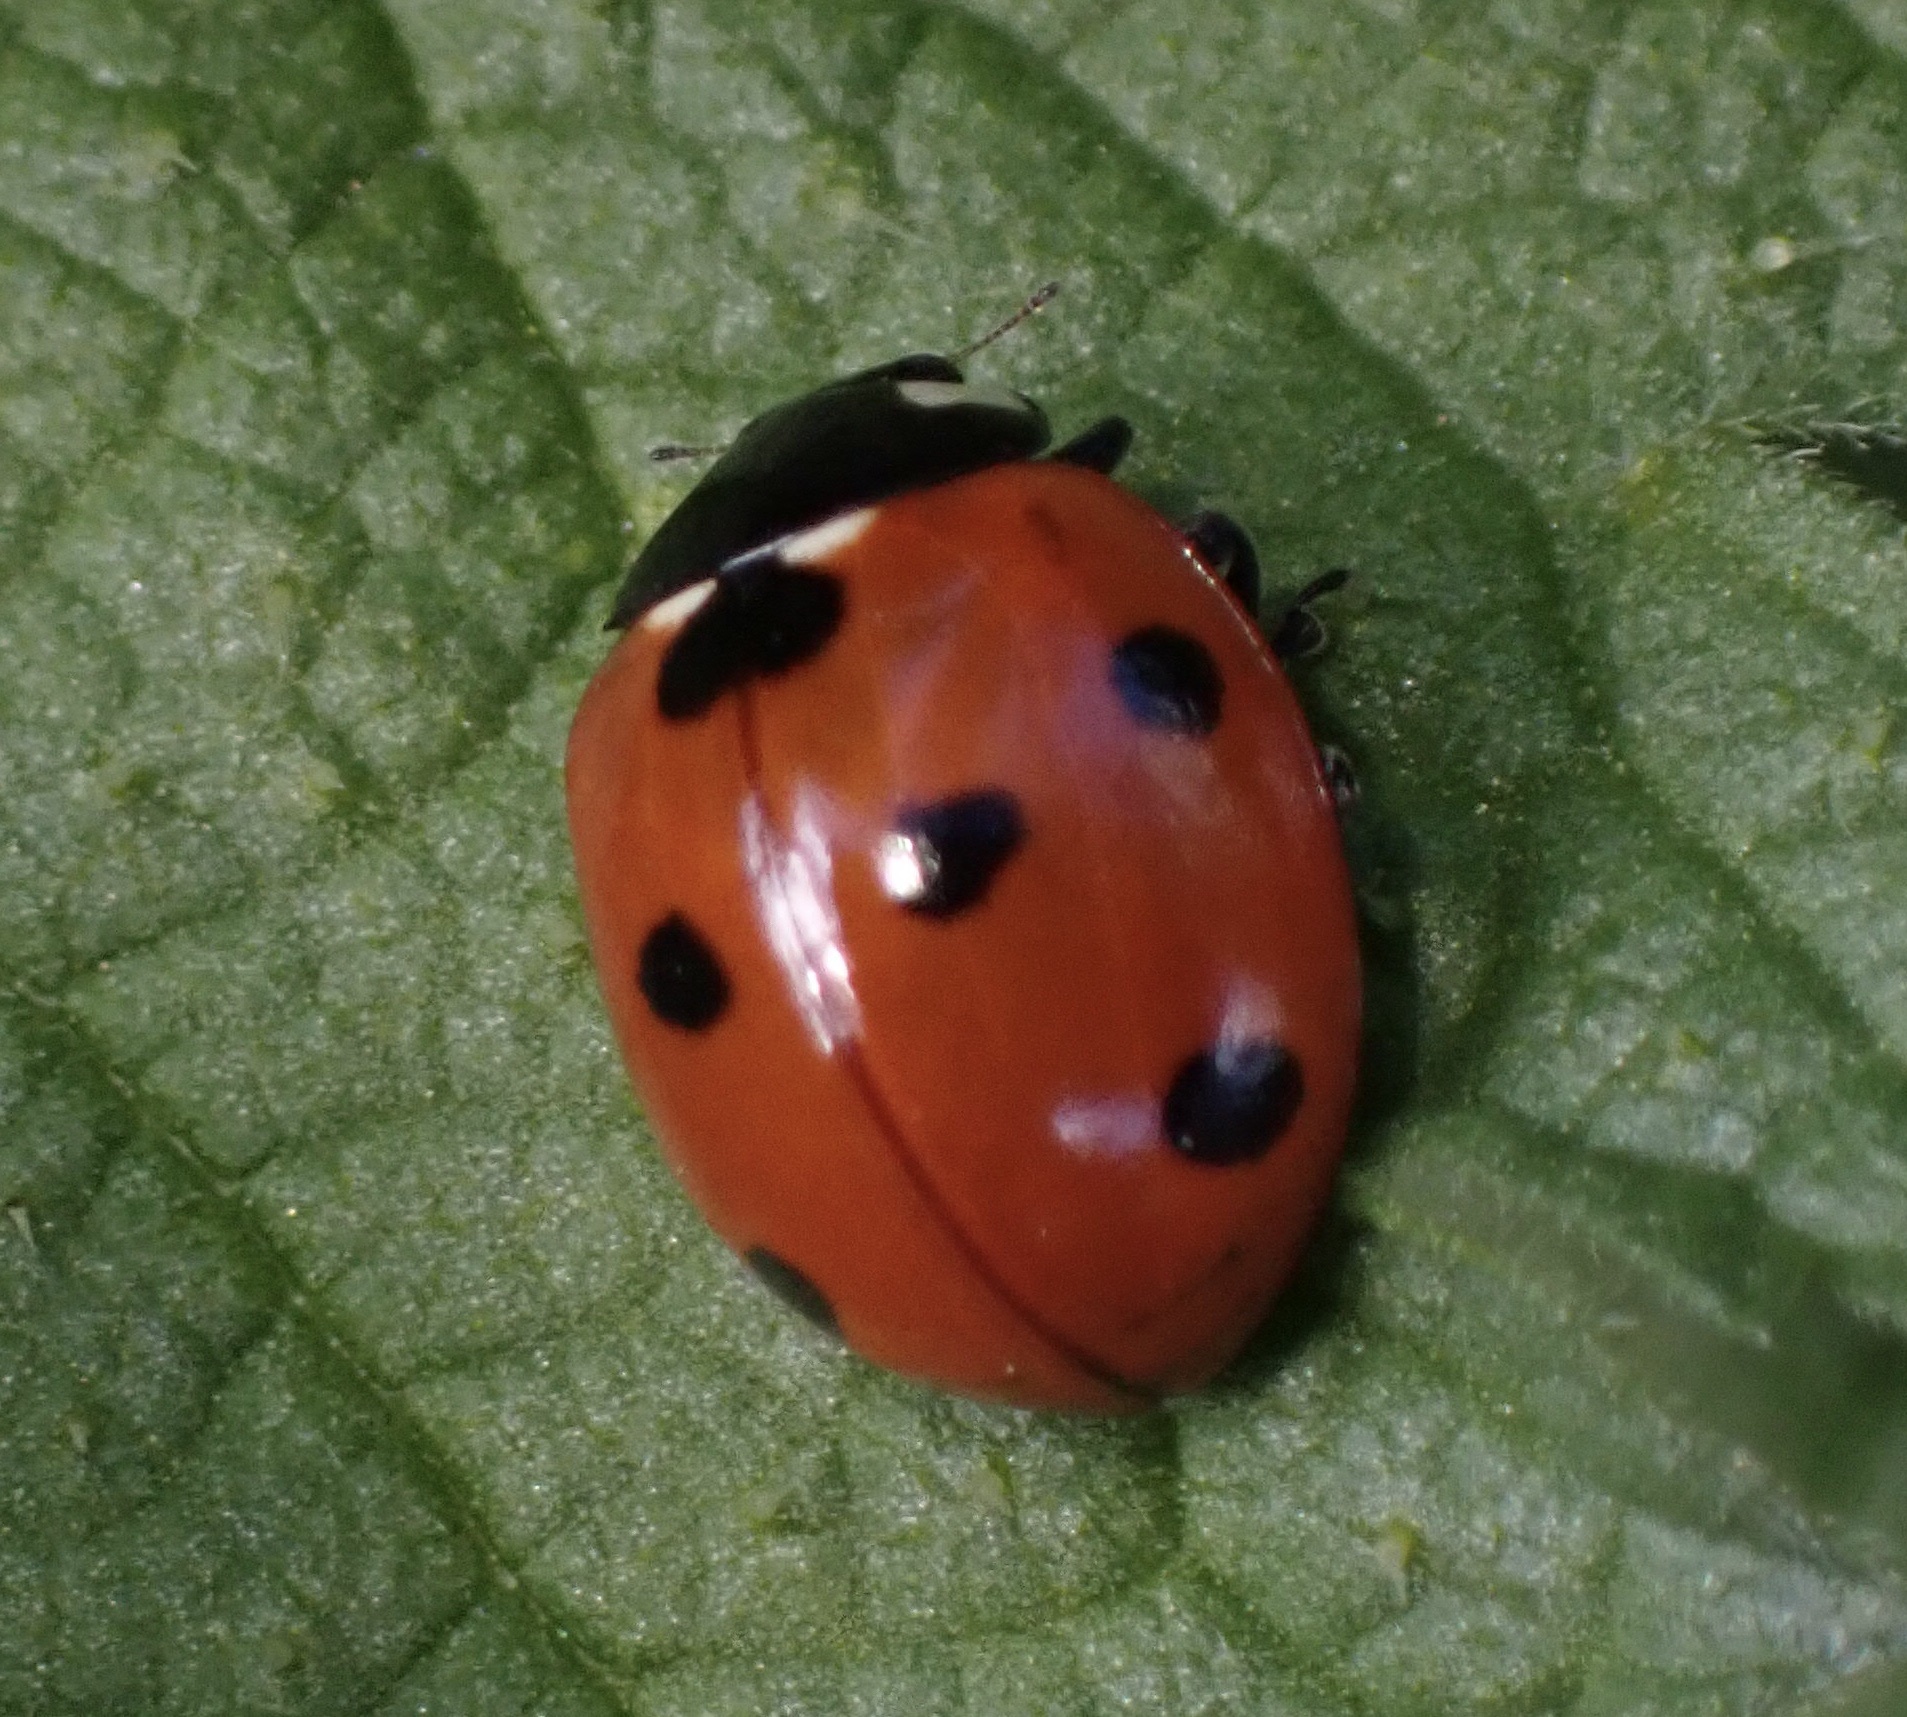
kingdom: Animalia
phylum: Arthropoda
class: Insecta
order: Coleoptera
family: Coccinellidae
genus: Coccinella
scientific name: Coccinella septempunctata
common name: Sevenspotted lady beetle
